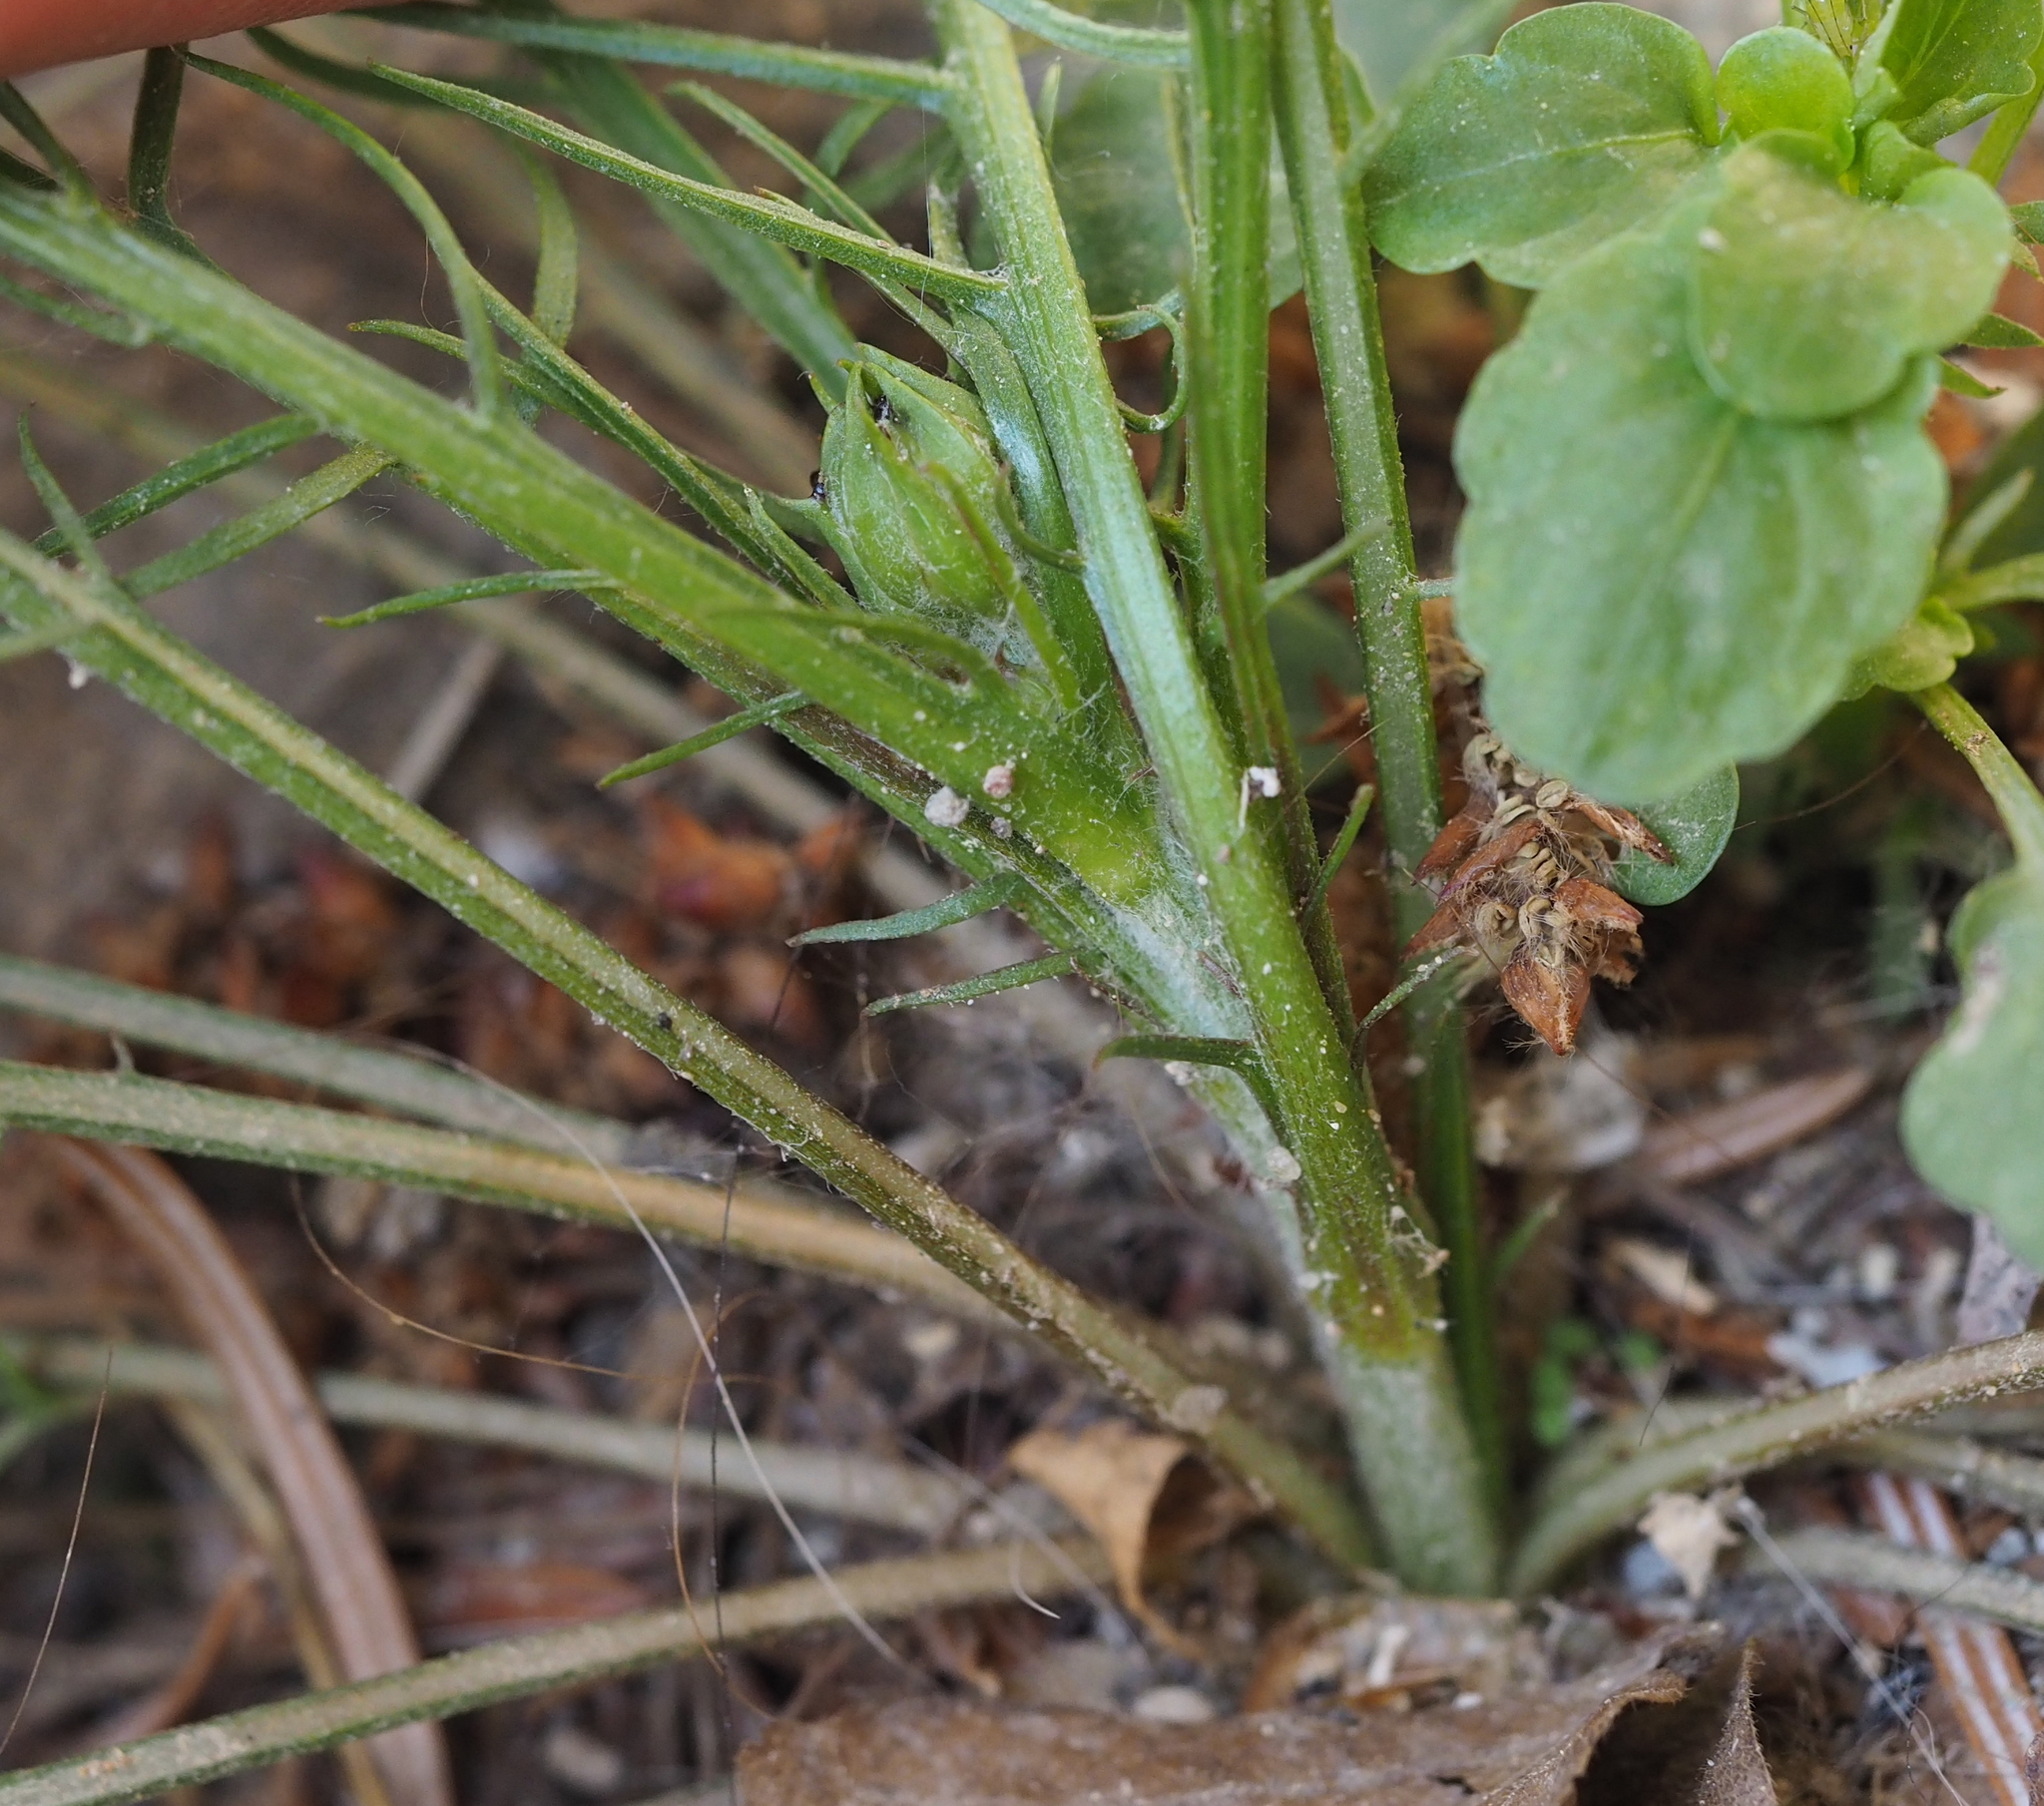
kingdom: Plantae
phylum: Tracheophyta
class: Magnoliopsida
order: Asterales
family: Asteraceae
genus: Scorzonera
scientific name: Scorzonera cana
